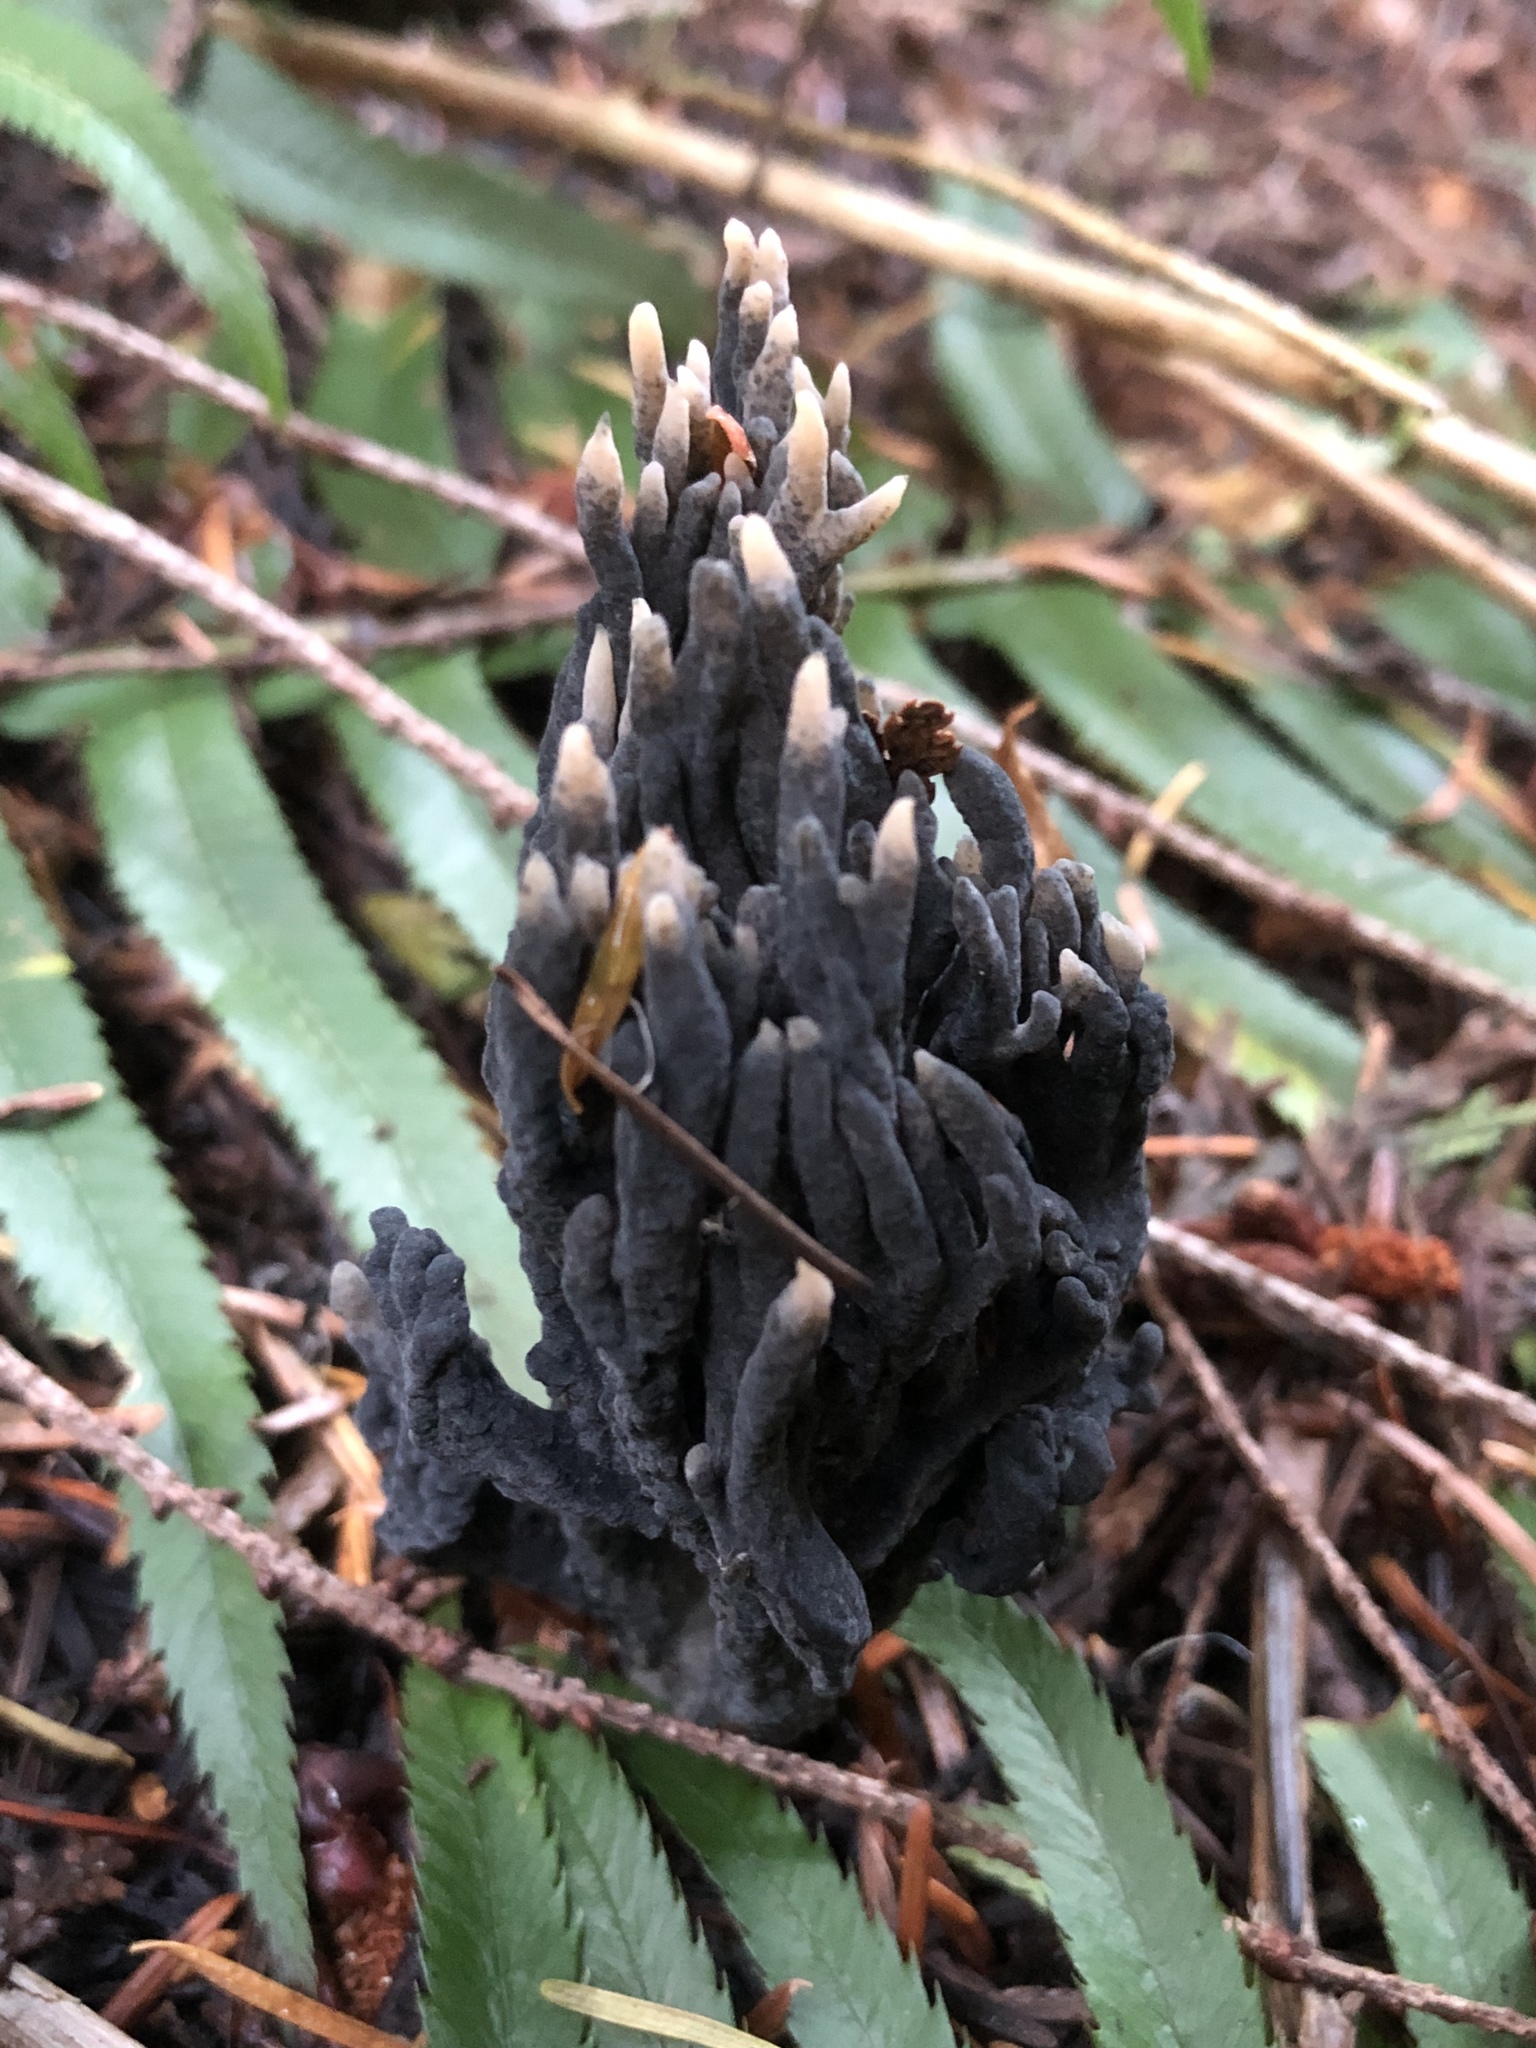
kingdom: Fungi
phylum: Basidiomycota
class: Agaricomycetes
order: Thelephorales
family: Thelephoraceae
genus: Thelephora
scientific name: Thelephora palmata
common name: Stinking earthfan
